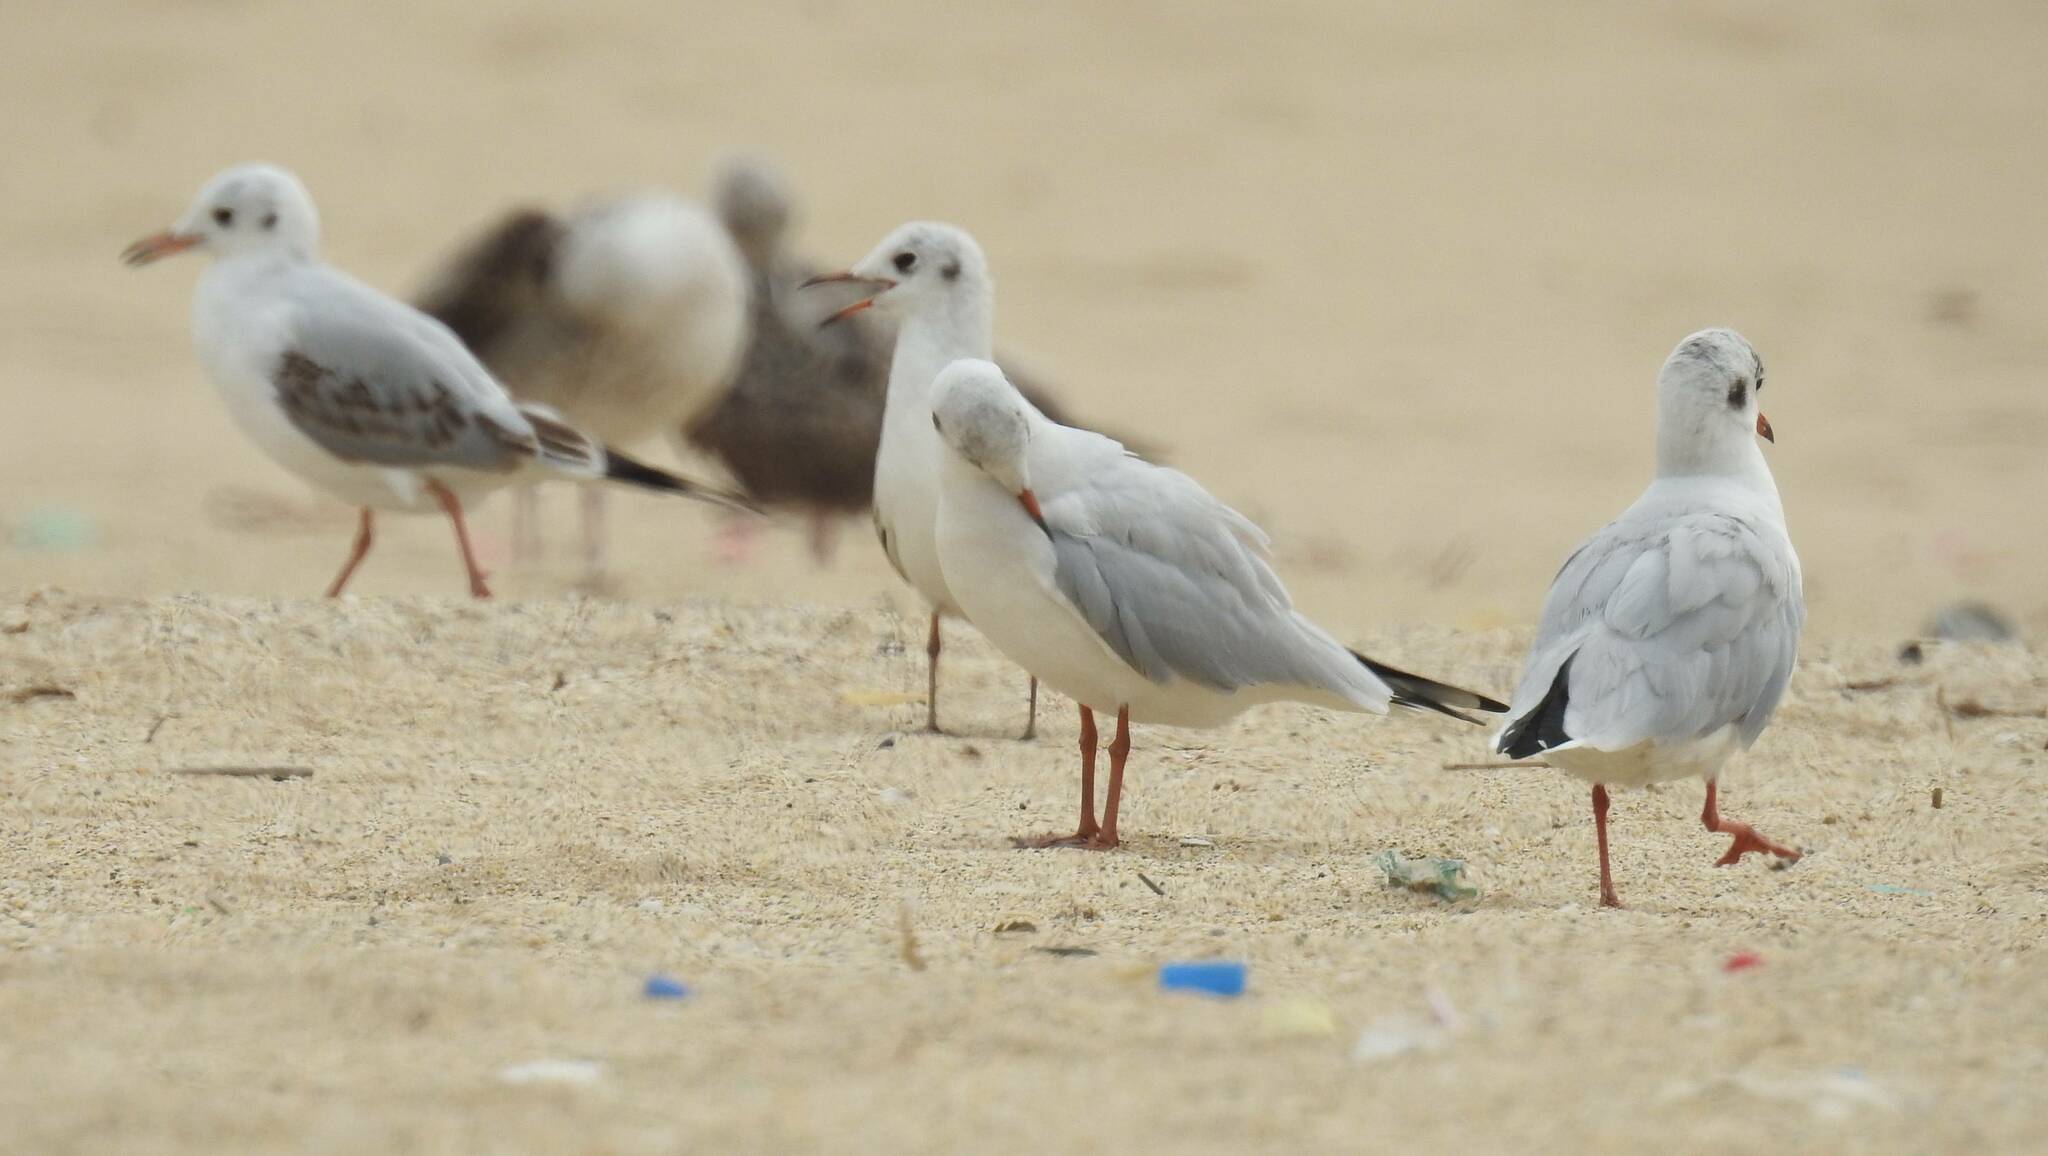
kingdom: Animalia
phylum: Chordata
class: Aves
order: Charadriiformes
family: Laridae
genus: Chroicocephalus
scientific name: Chroicocephalus ridibundus
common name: Black-headed gull
